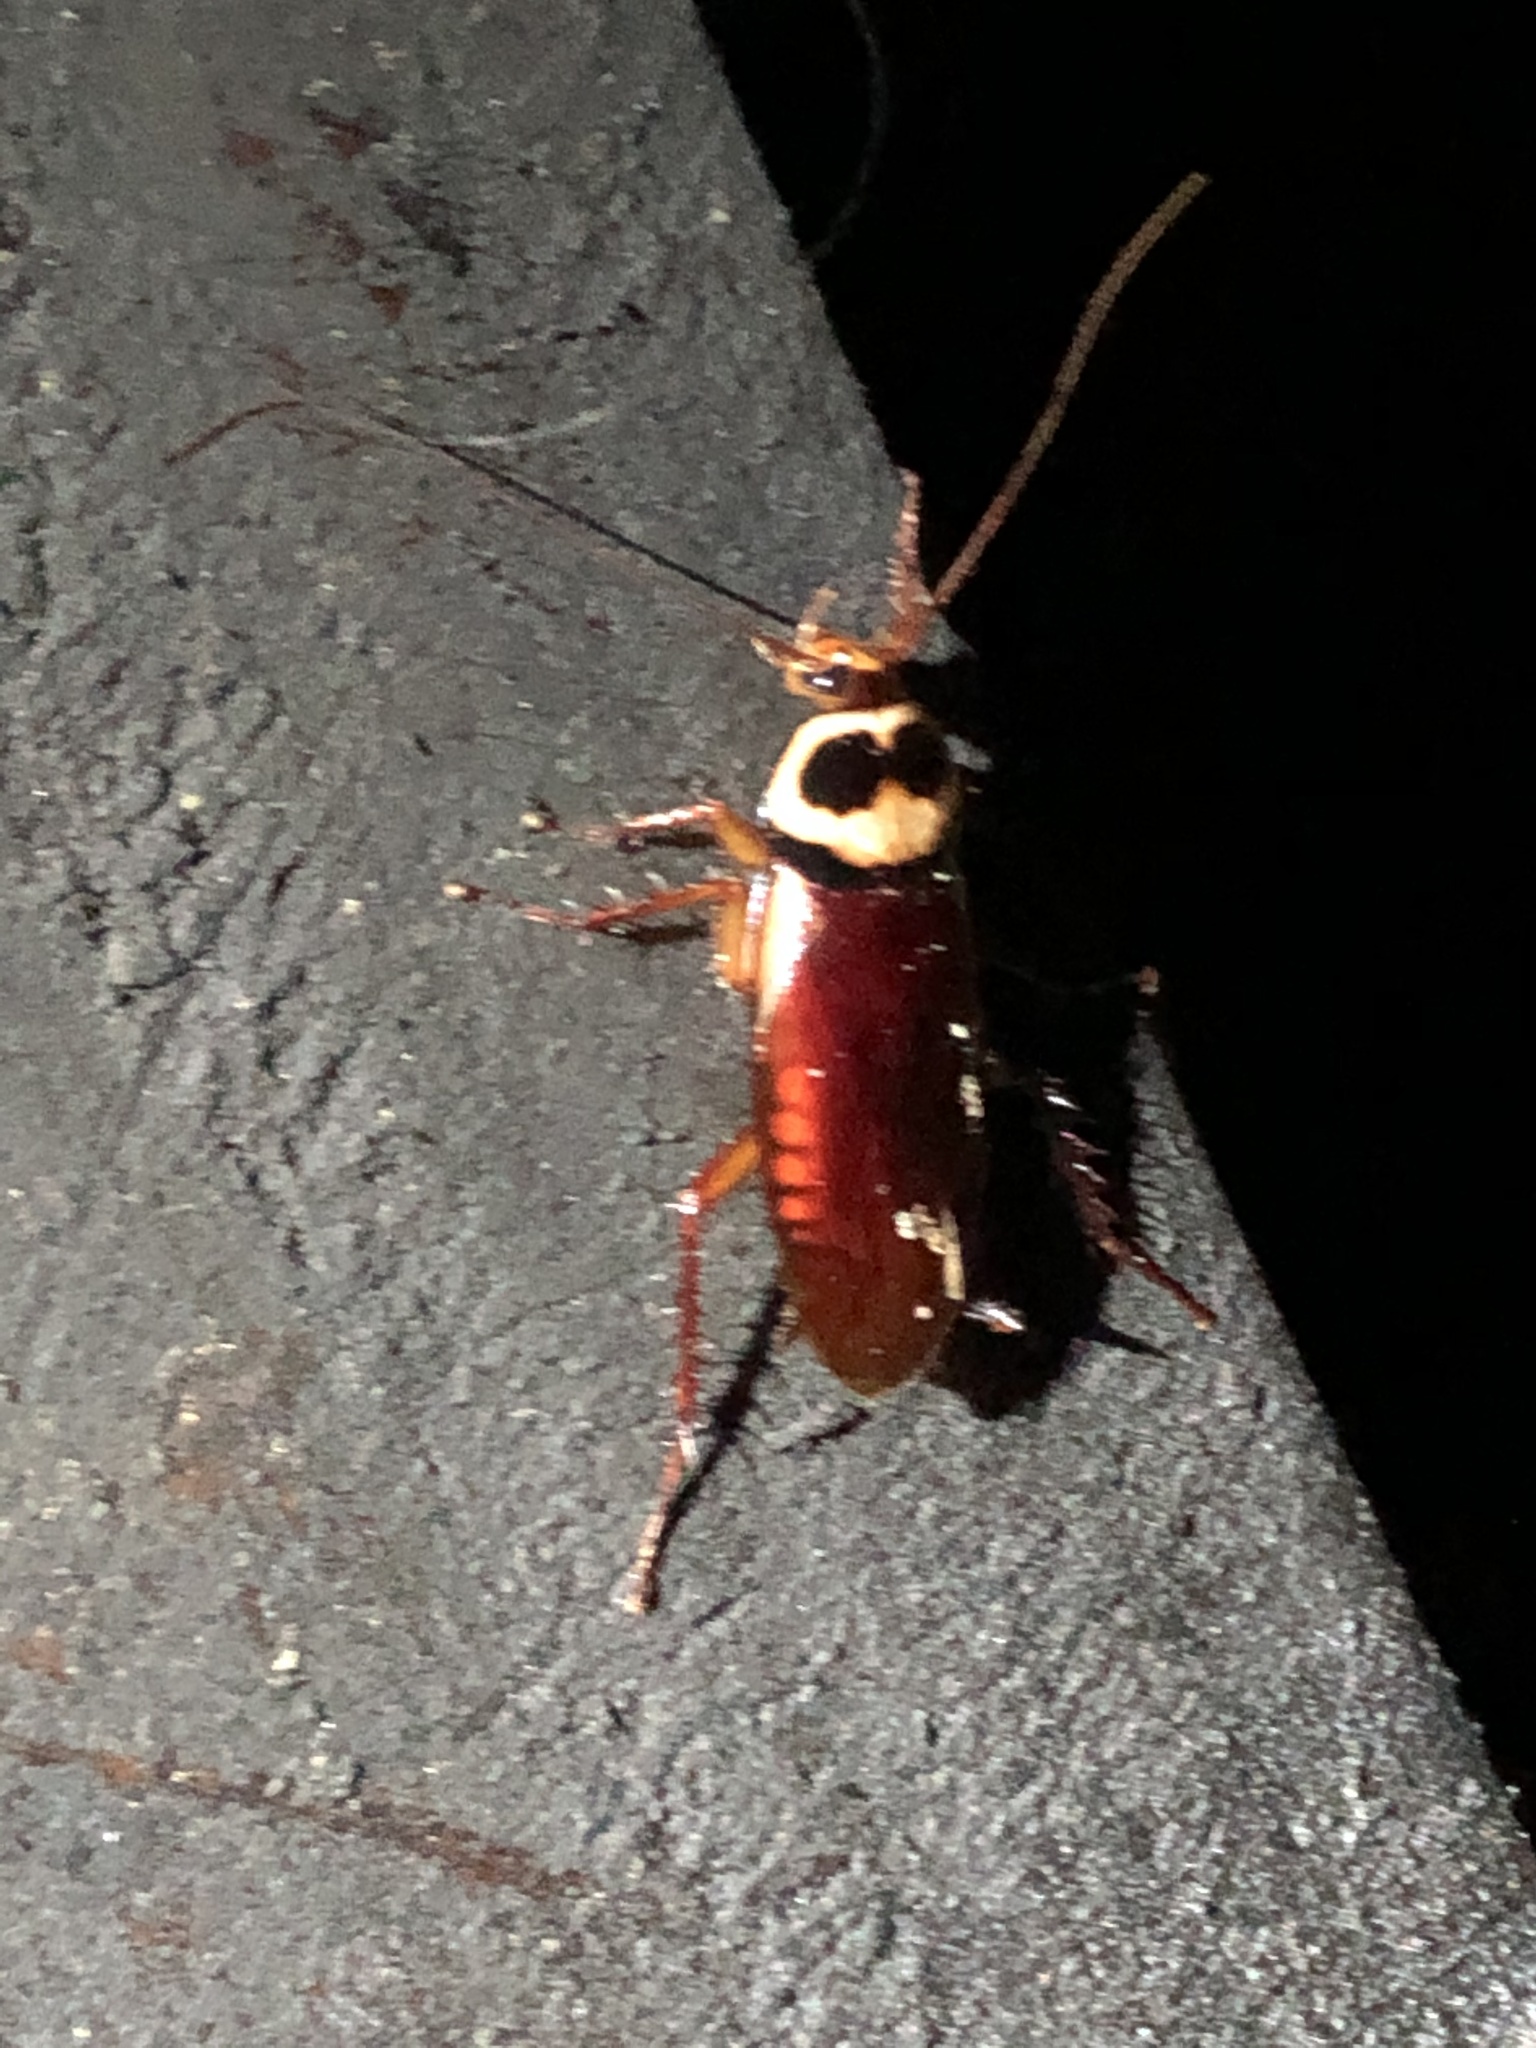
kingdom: Animalia
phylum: Arthropoda
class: Insecta
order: Blattodea
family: Blattidae
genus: Periplaneta
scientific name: Periplaneta australasiae
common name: Australian cockroach
